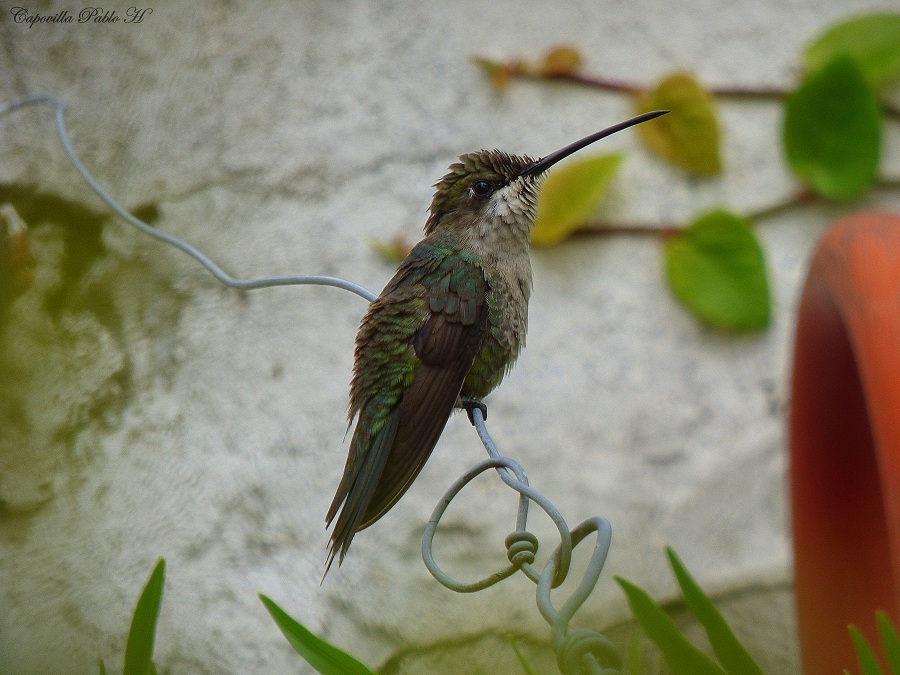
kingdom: Animalia
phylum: Chordata
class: Aves
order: Apodiformes
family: Trochilidae
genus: Heliomaster
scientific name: Heliomaster furcifer
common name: Blue-tufted starthroat
